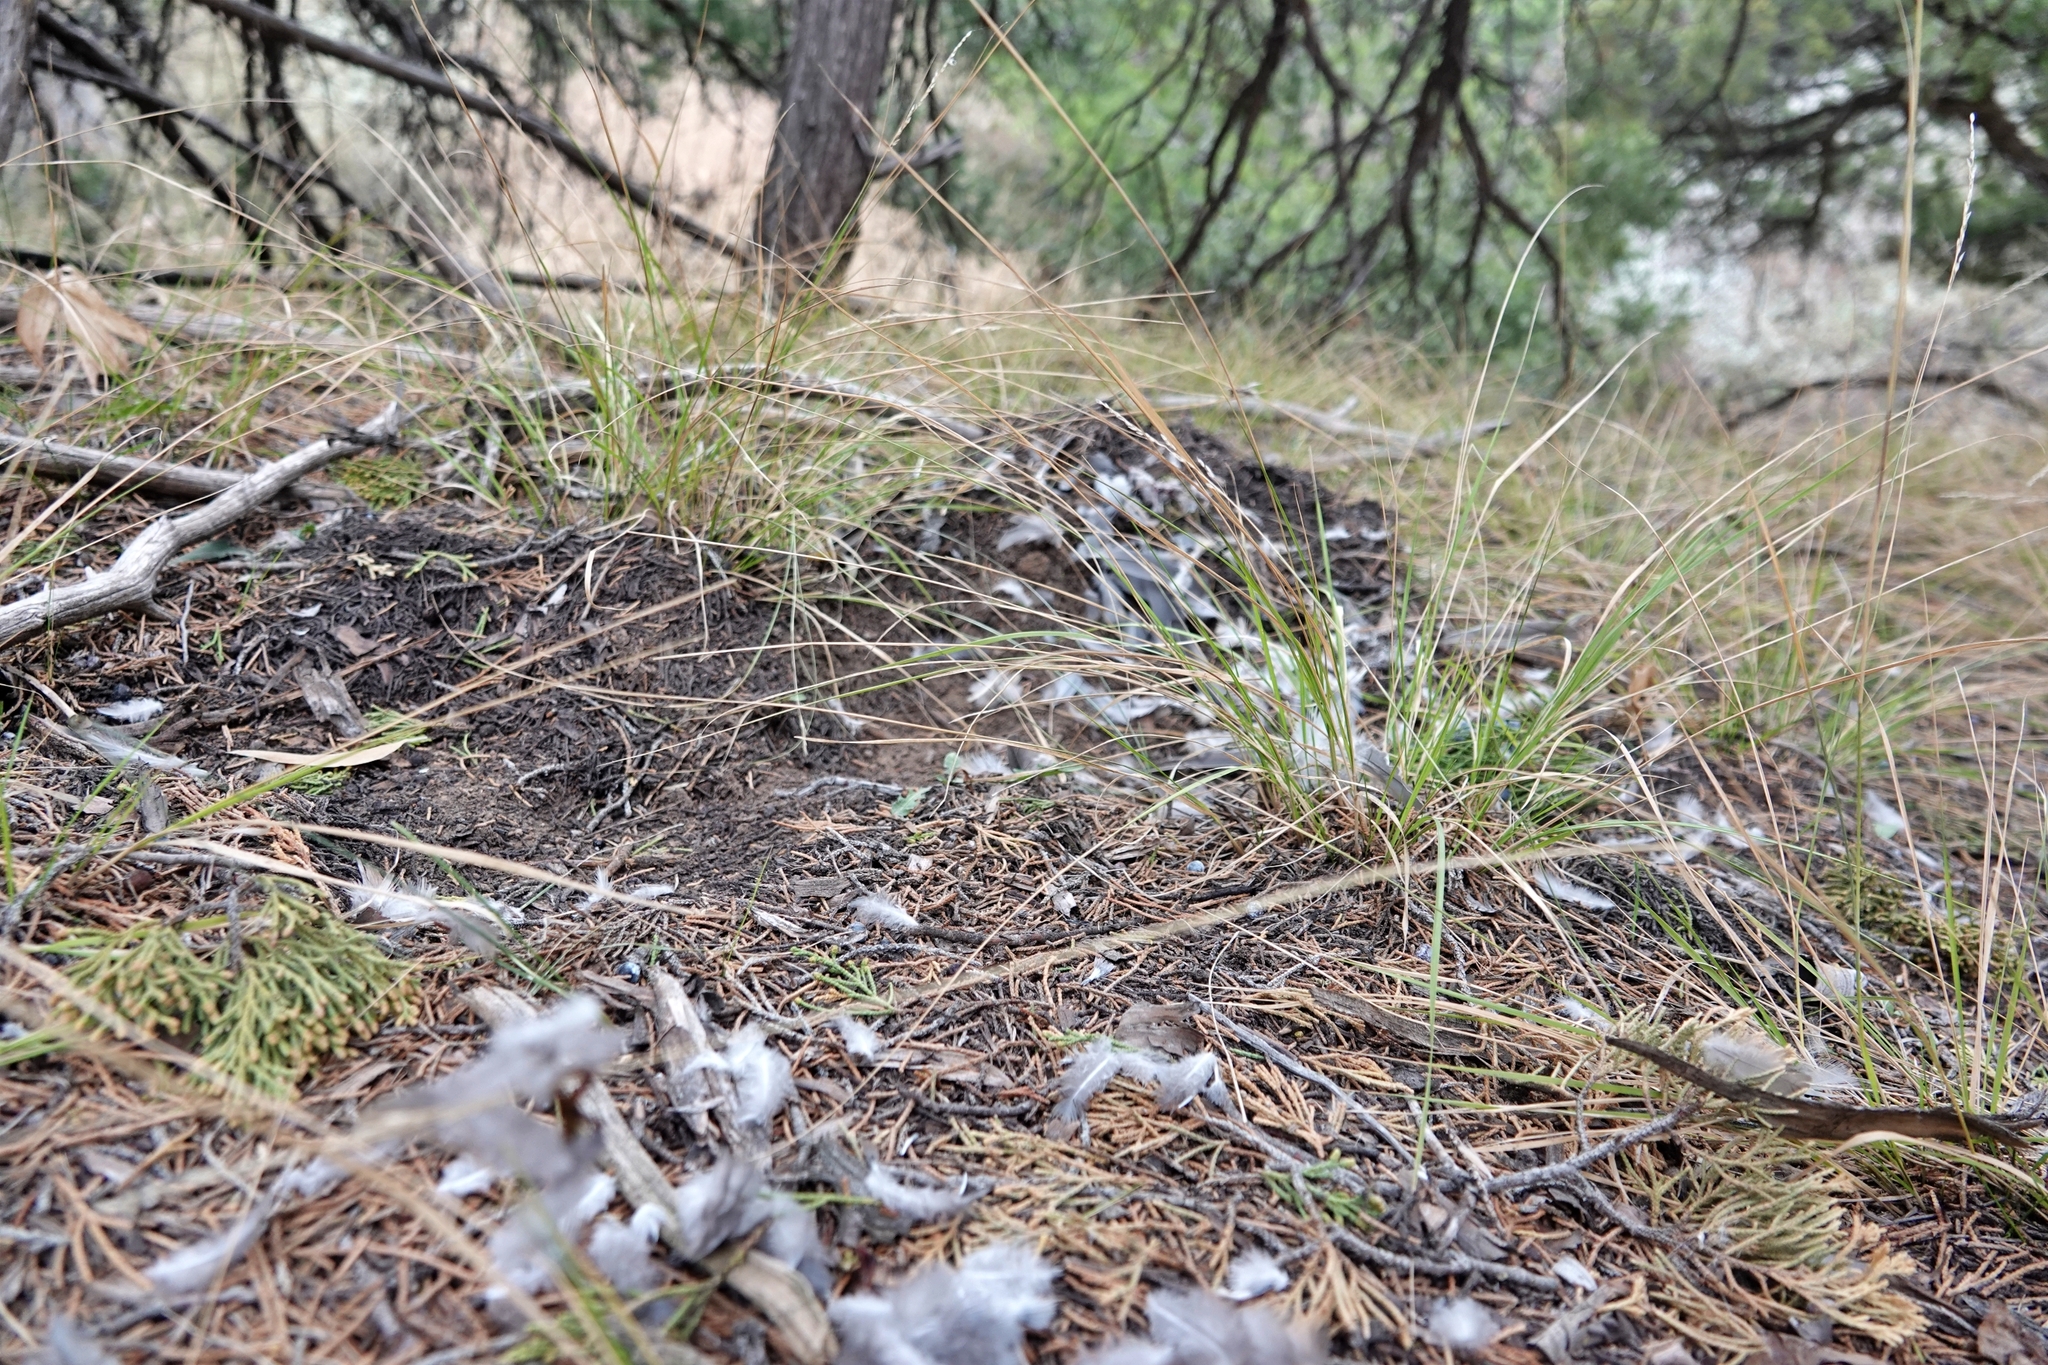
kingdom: Animalia
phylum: Chordata
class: Mammalia
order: Carnivora
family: Felidae
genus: Puma
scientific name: Puma concolor
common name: Puma
